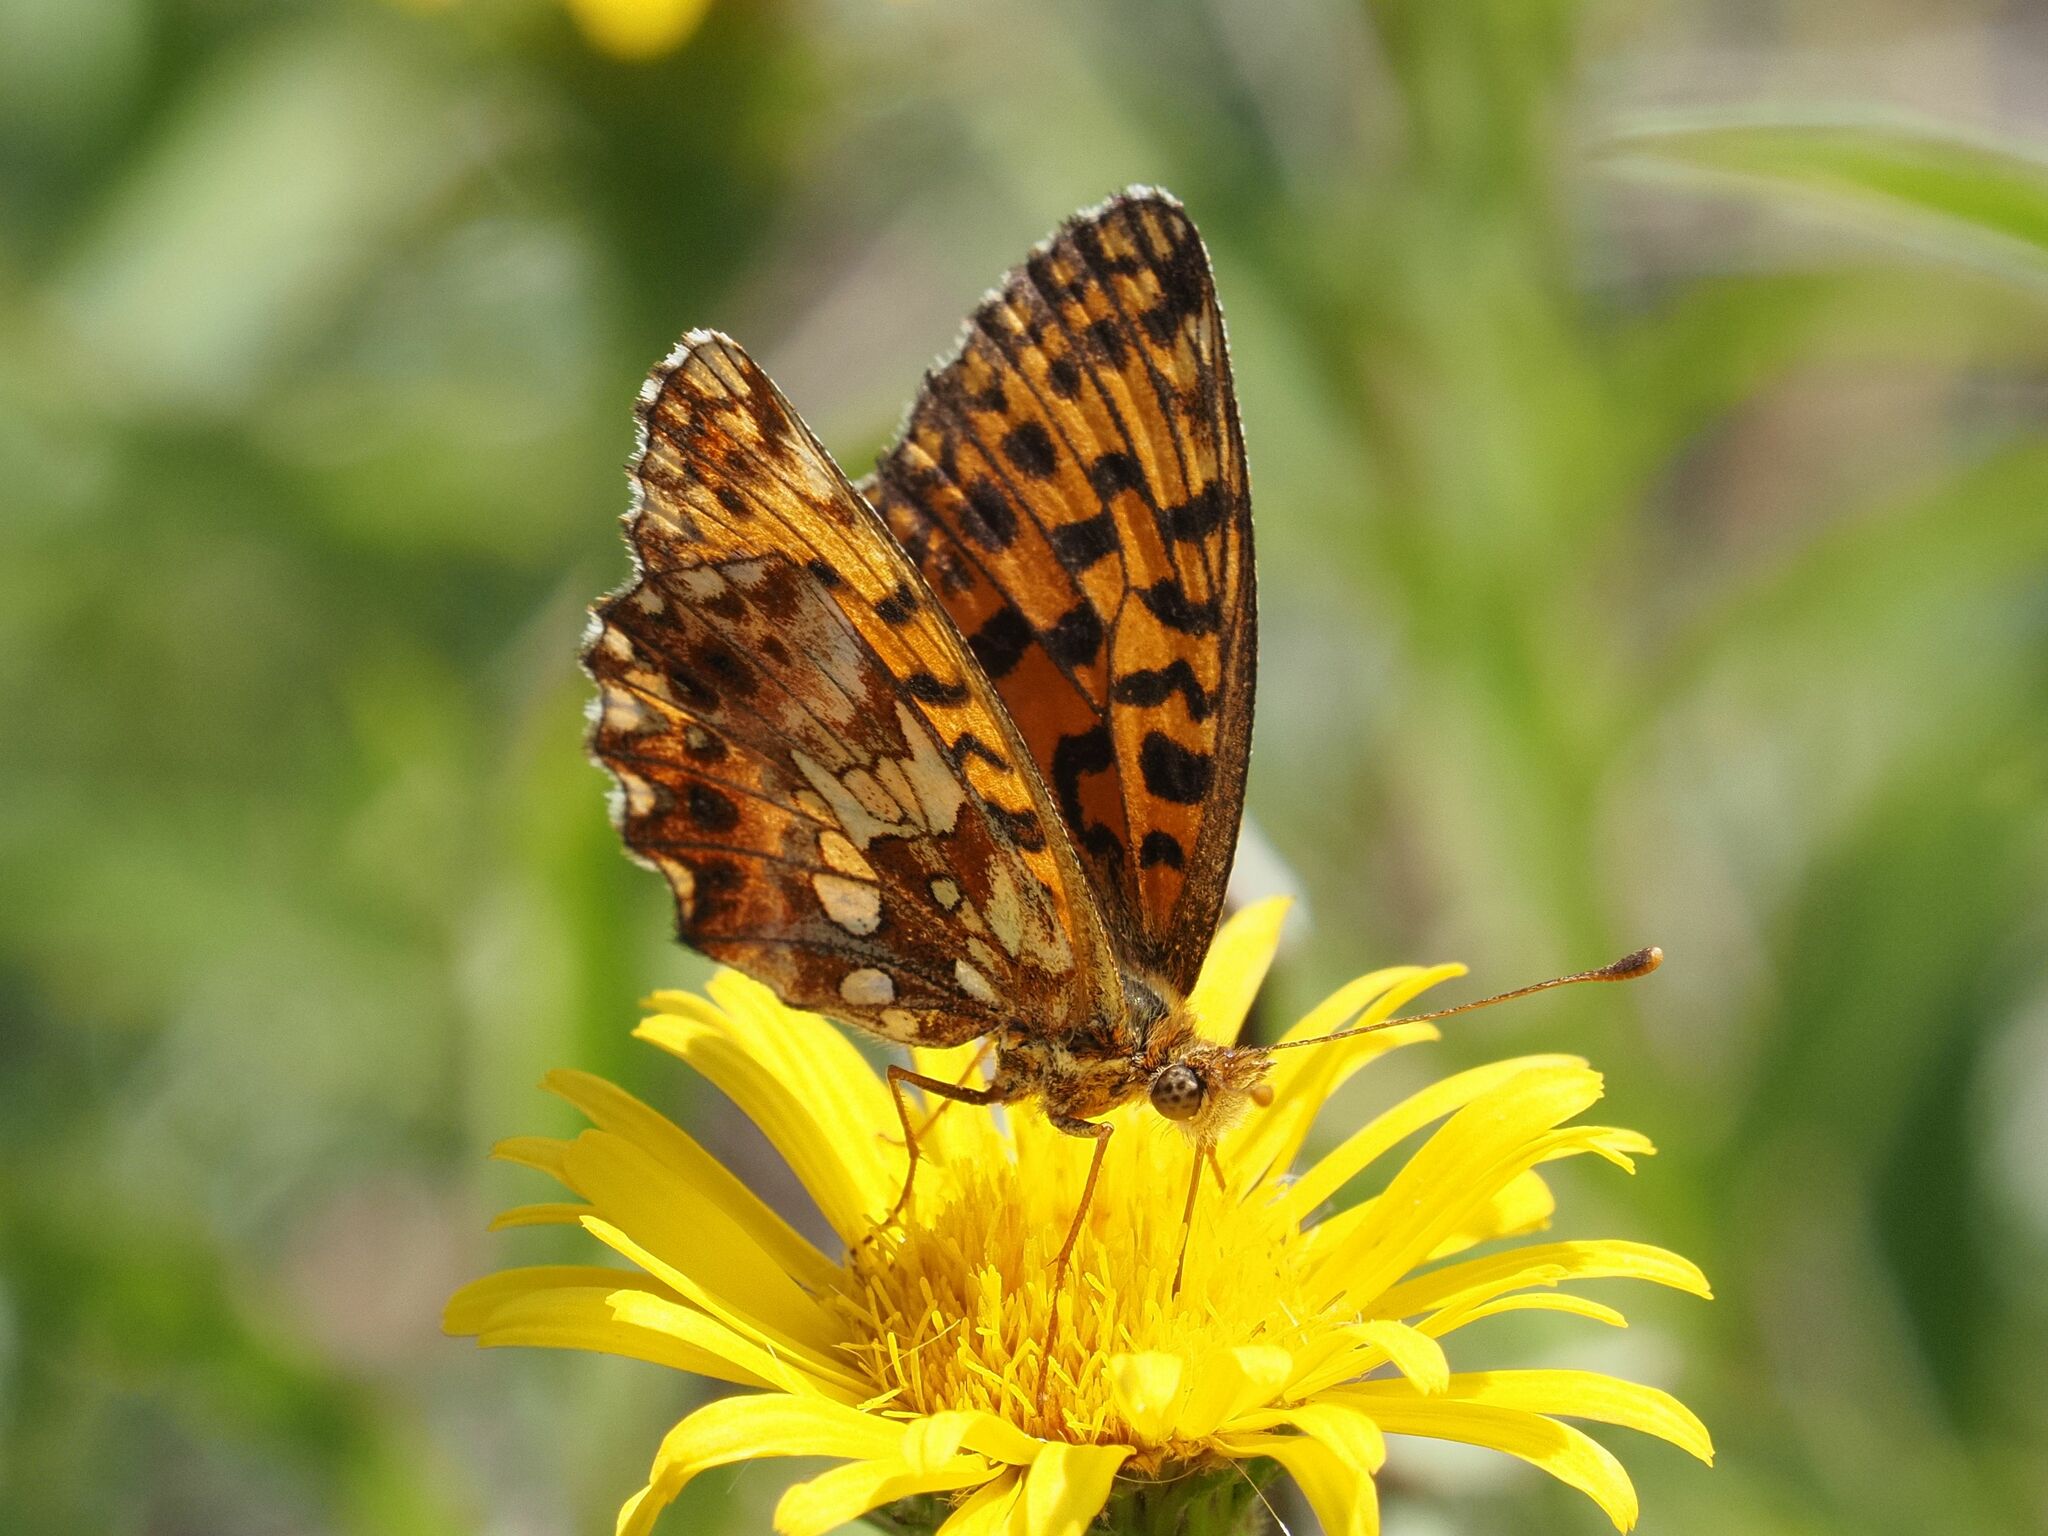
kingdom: Animalia
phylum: Arthropoda
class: Insecta
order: Lepidoptera
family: Nymphalidae
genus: Boloria
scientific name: Boloria dia
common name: Weaver's fritillary
